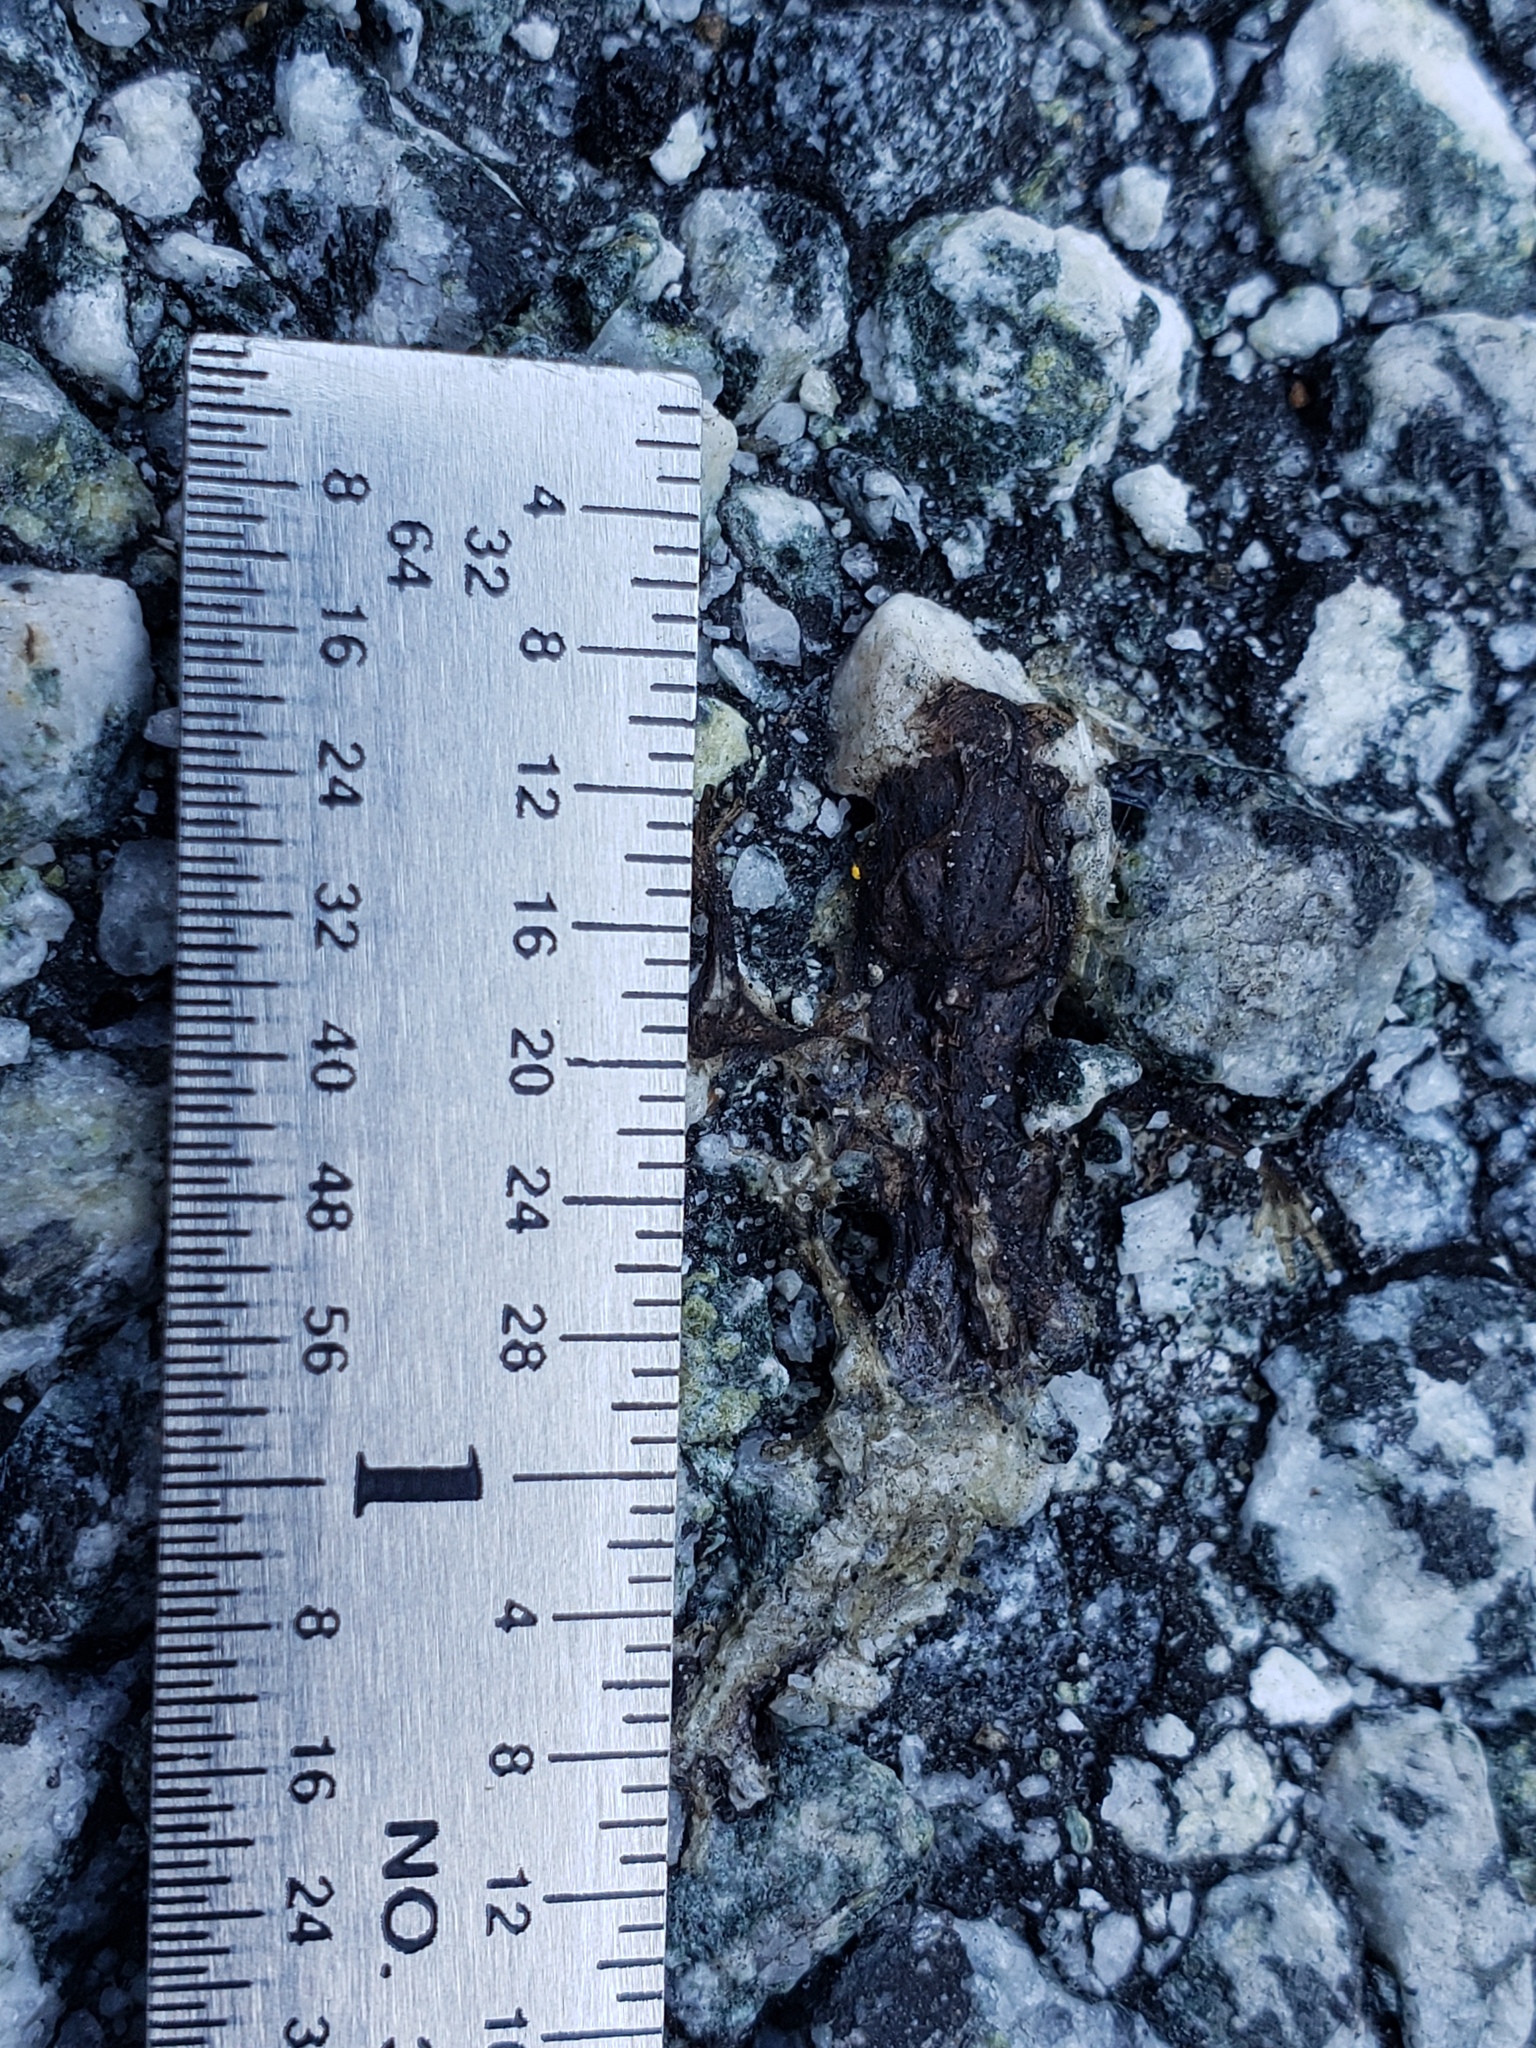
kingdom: Animalia
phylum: Chordata
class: Amphibia
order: Caudata
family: Salamandridae
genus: Taricha
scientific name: Taricha
